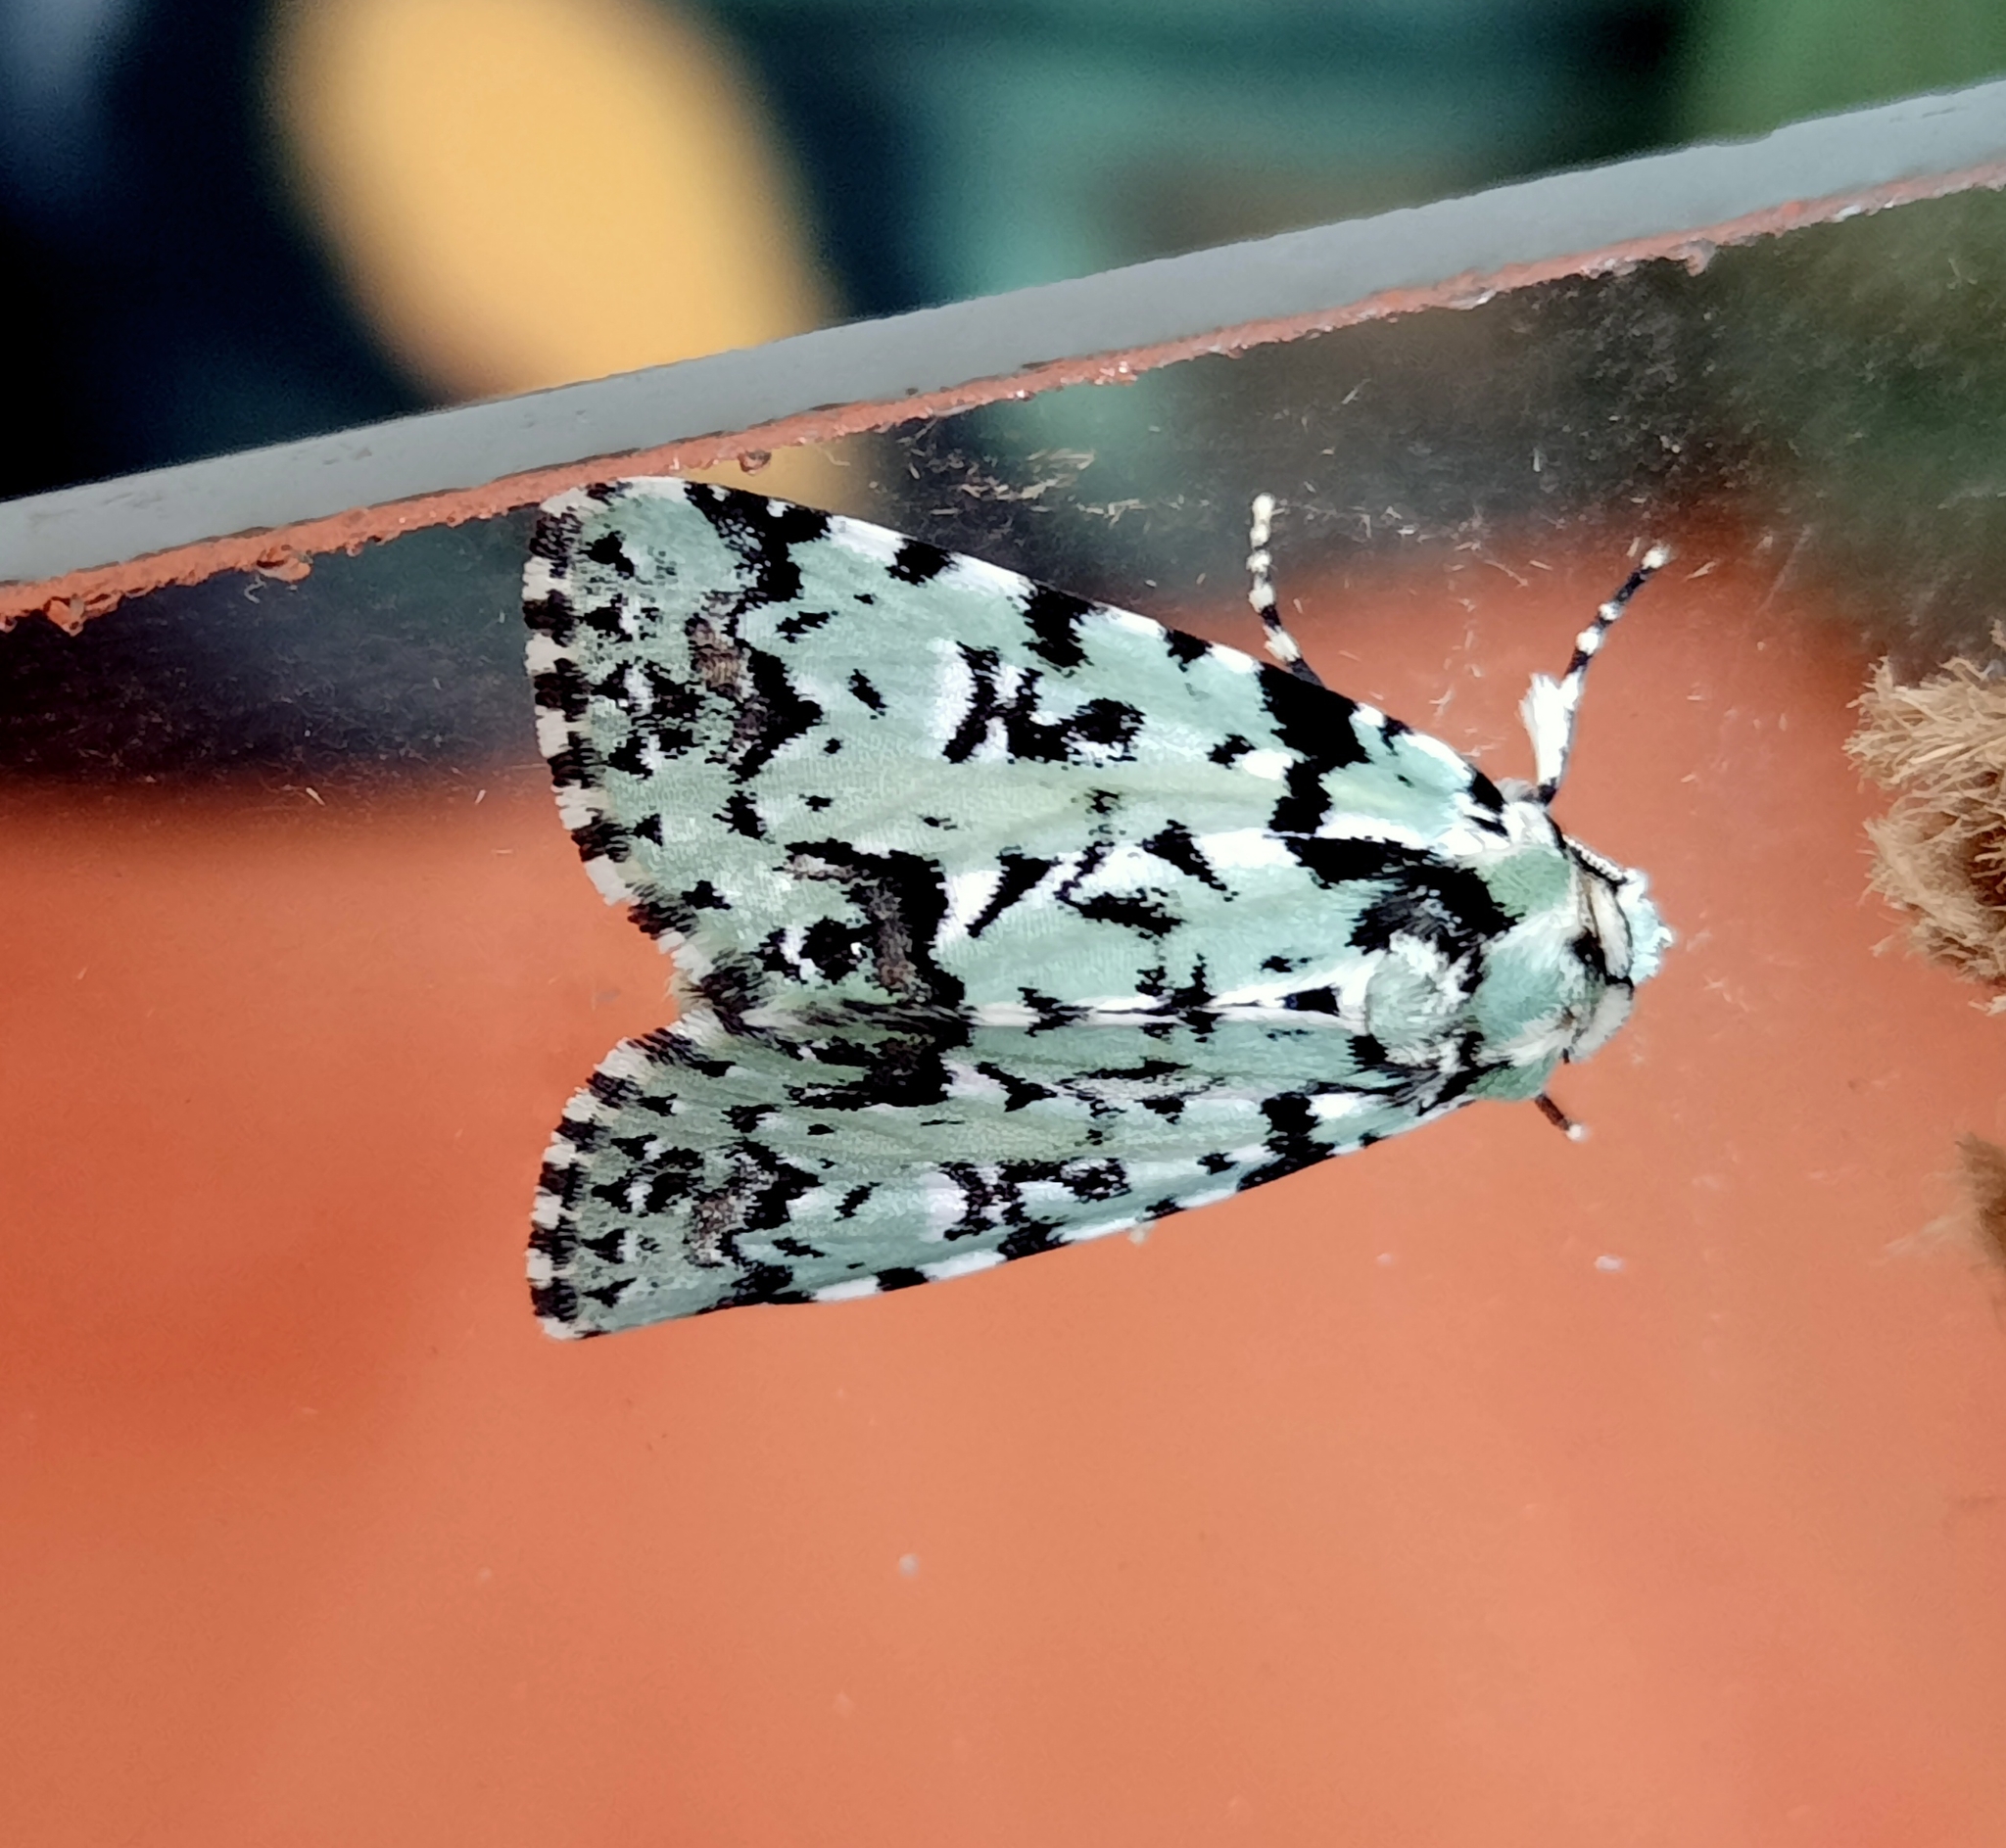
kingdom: Animalia
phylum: Arthropoda
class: Insecta
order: Lepidoptera
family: Noctuidae
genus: Moma
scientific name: Moma alpium
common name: Scarce merveille du jour
